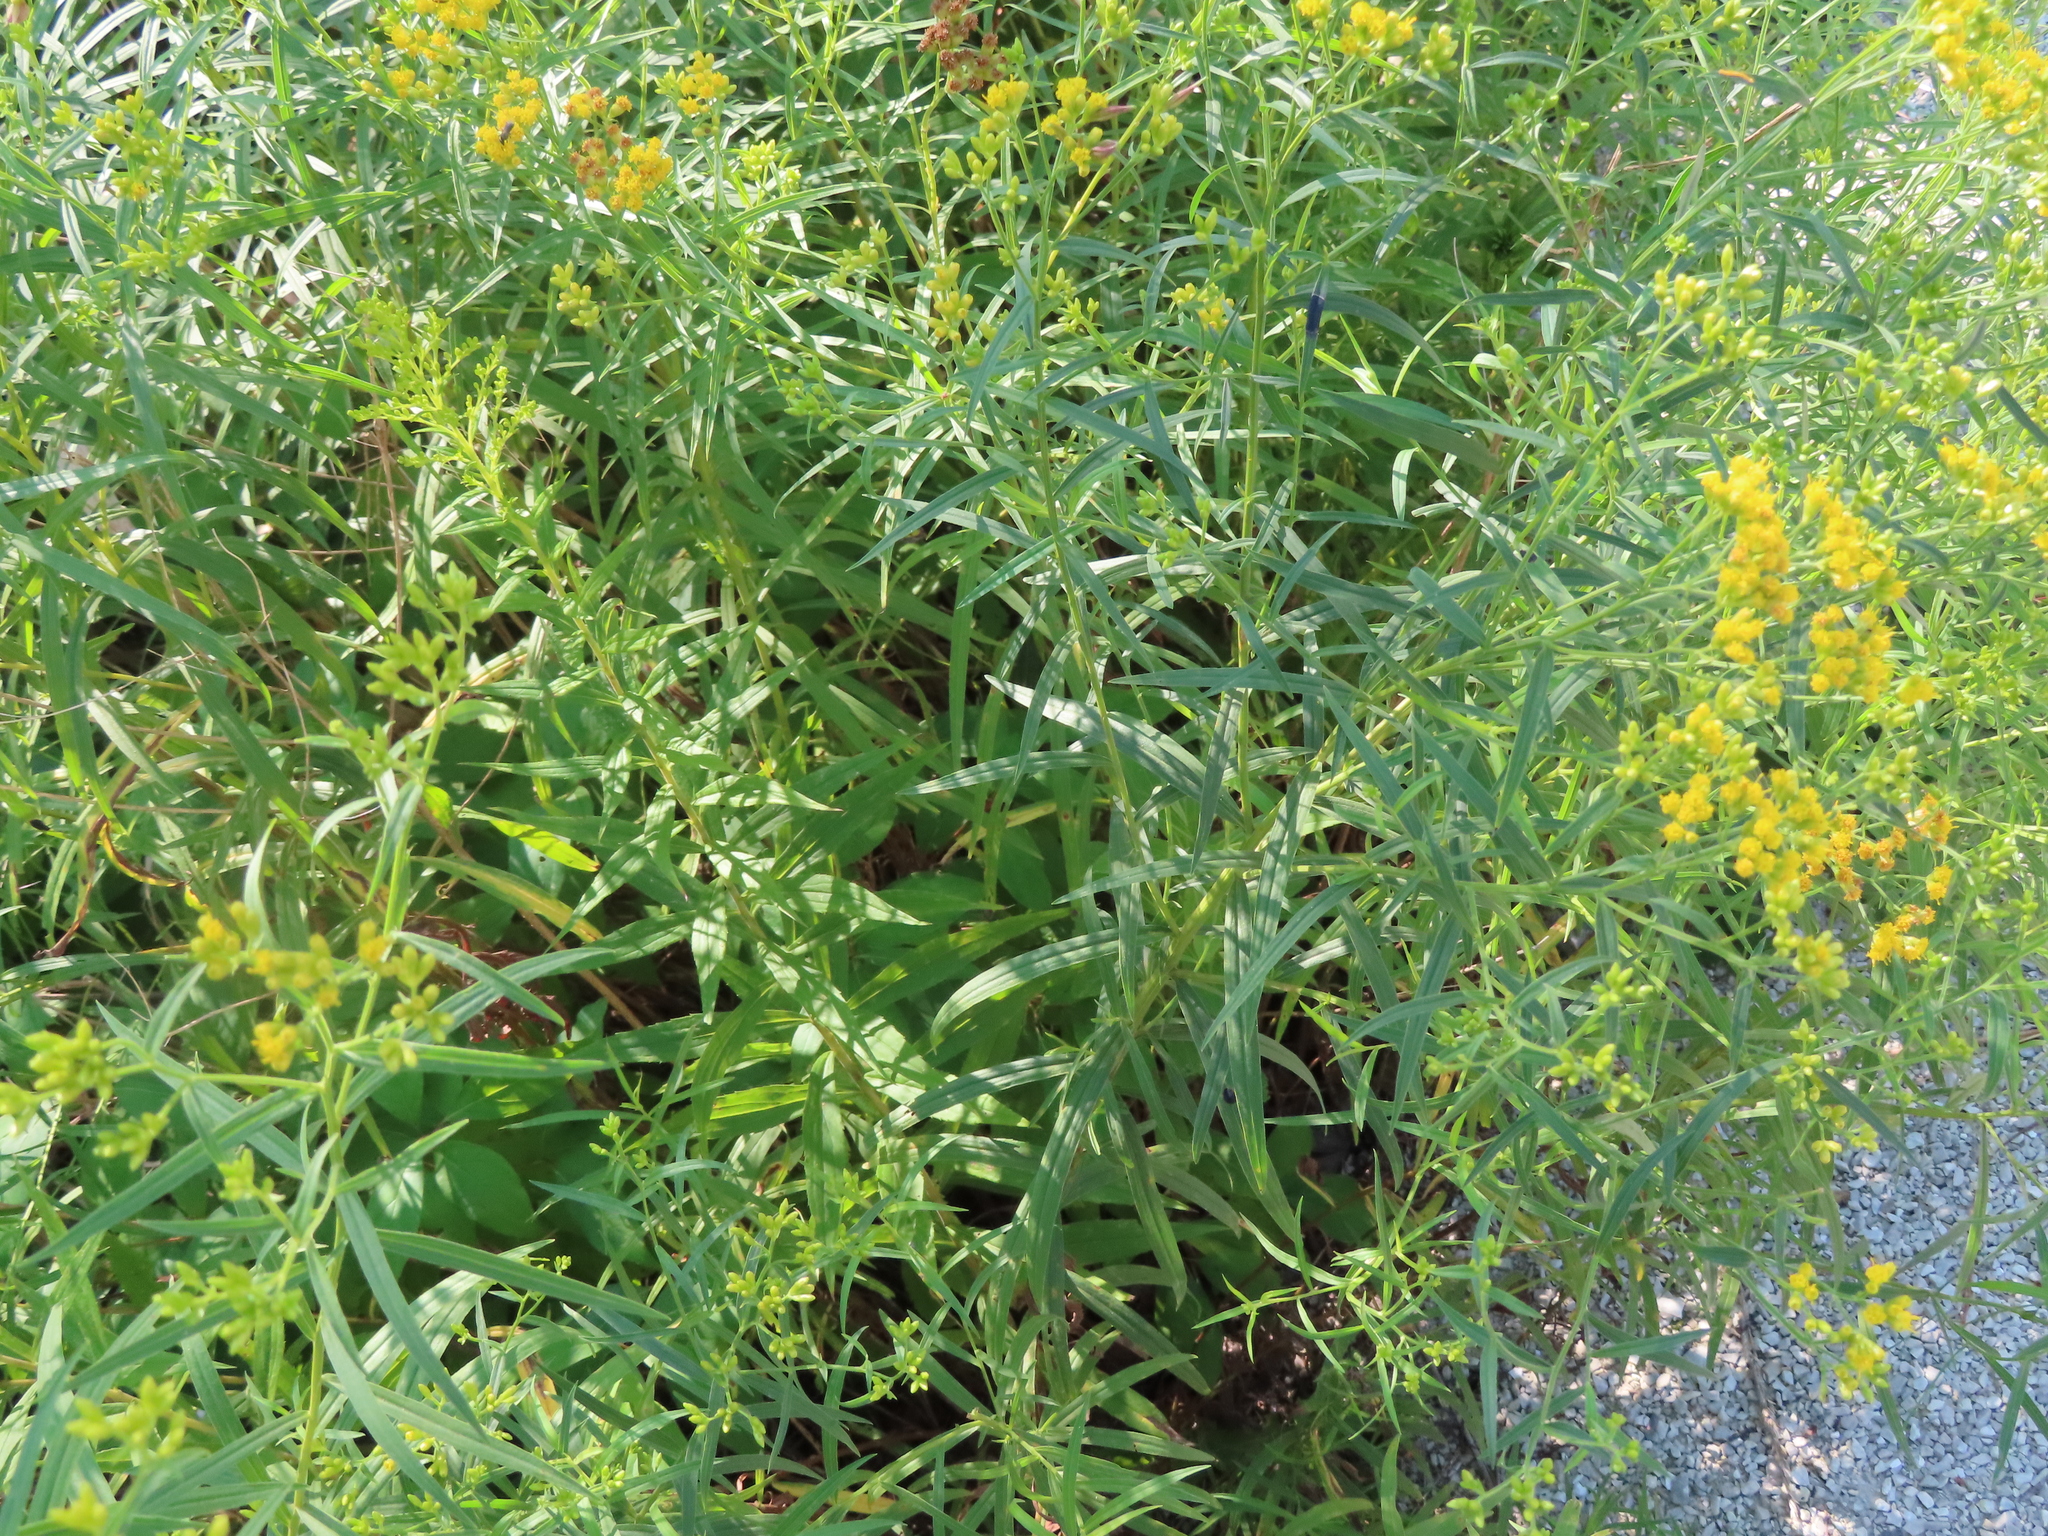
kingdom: Plantae
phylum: Tracheophyta
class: Magnoliopsida
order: Asterales
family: Asteraceae
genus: Euthamia
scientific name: Euthamia graminifolia
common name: Common goldentop
